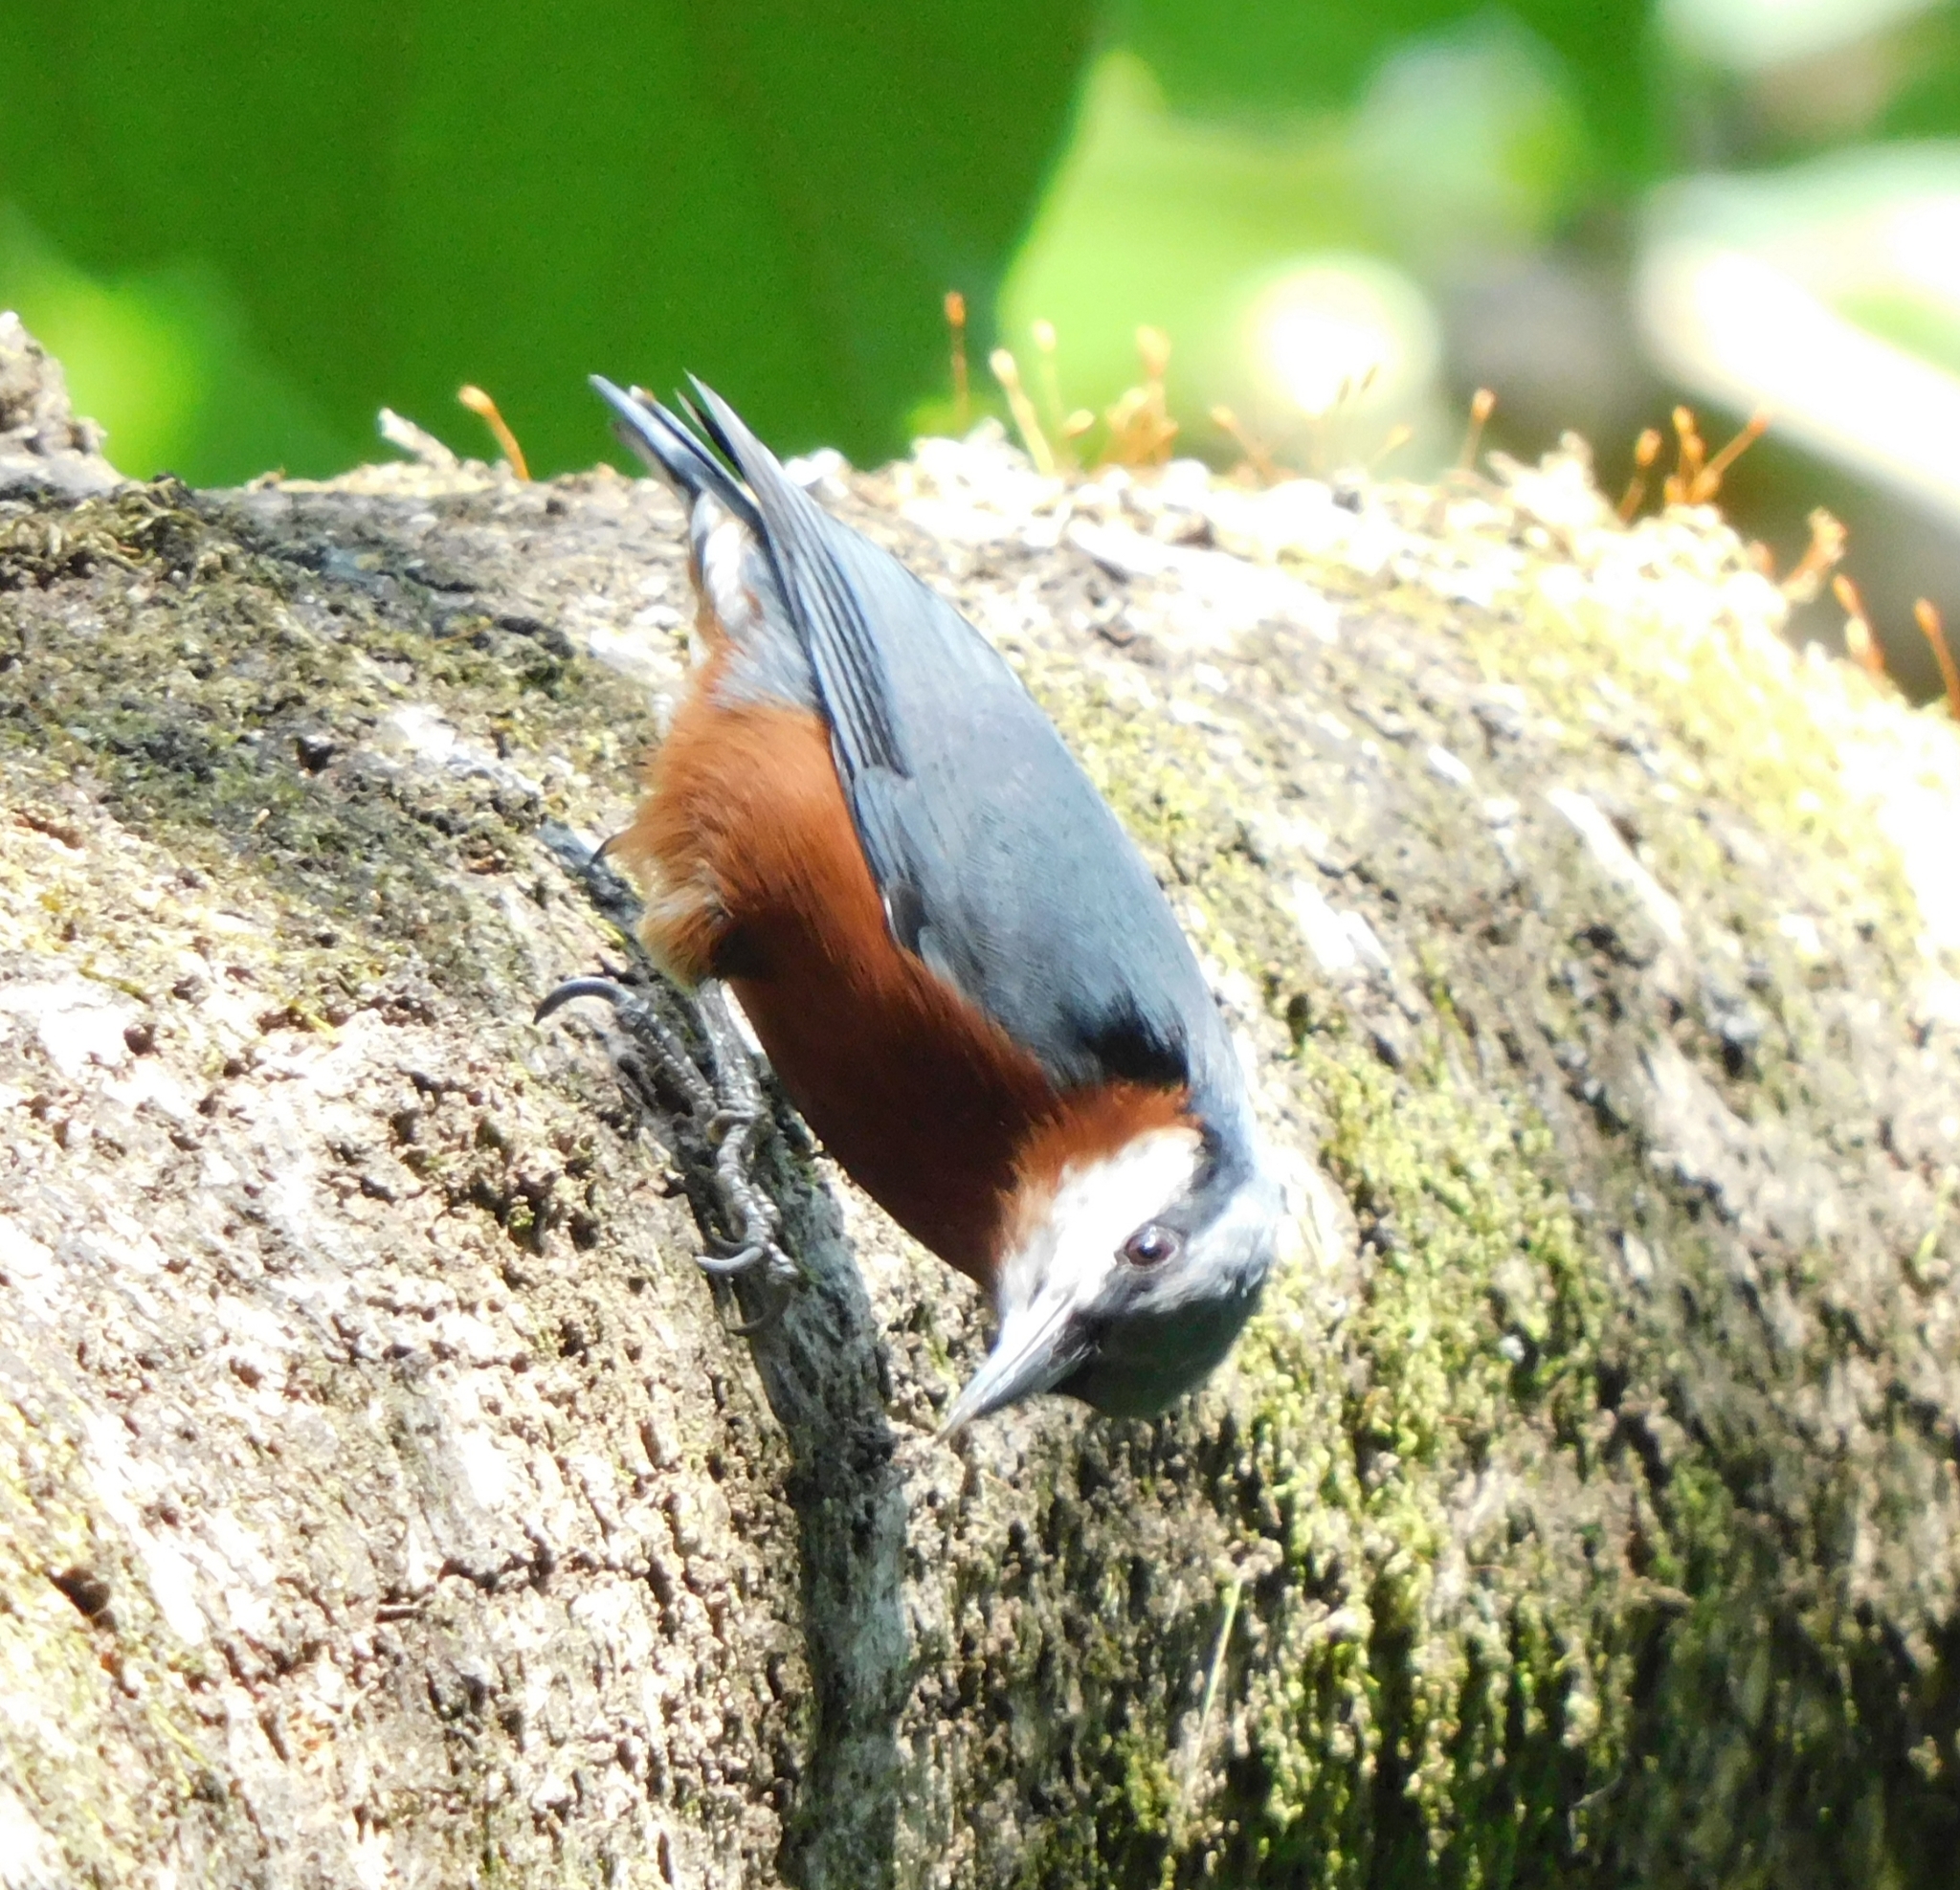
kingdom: Animalia
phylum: Chordata
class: Aves
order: Passeriformes
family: Sittidae
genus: Sitta
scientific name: Sitta cinnamoventris
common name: Chestnut-bellied nuthatch
